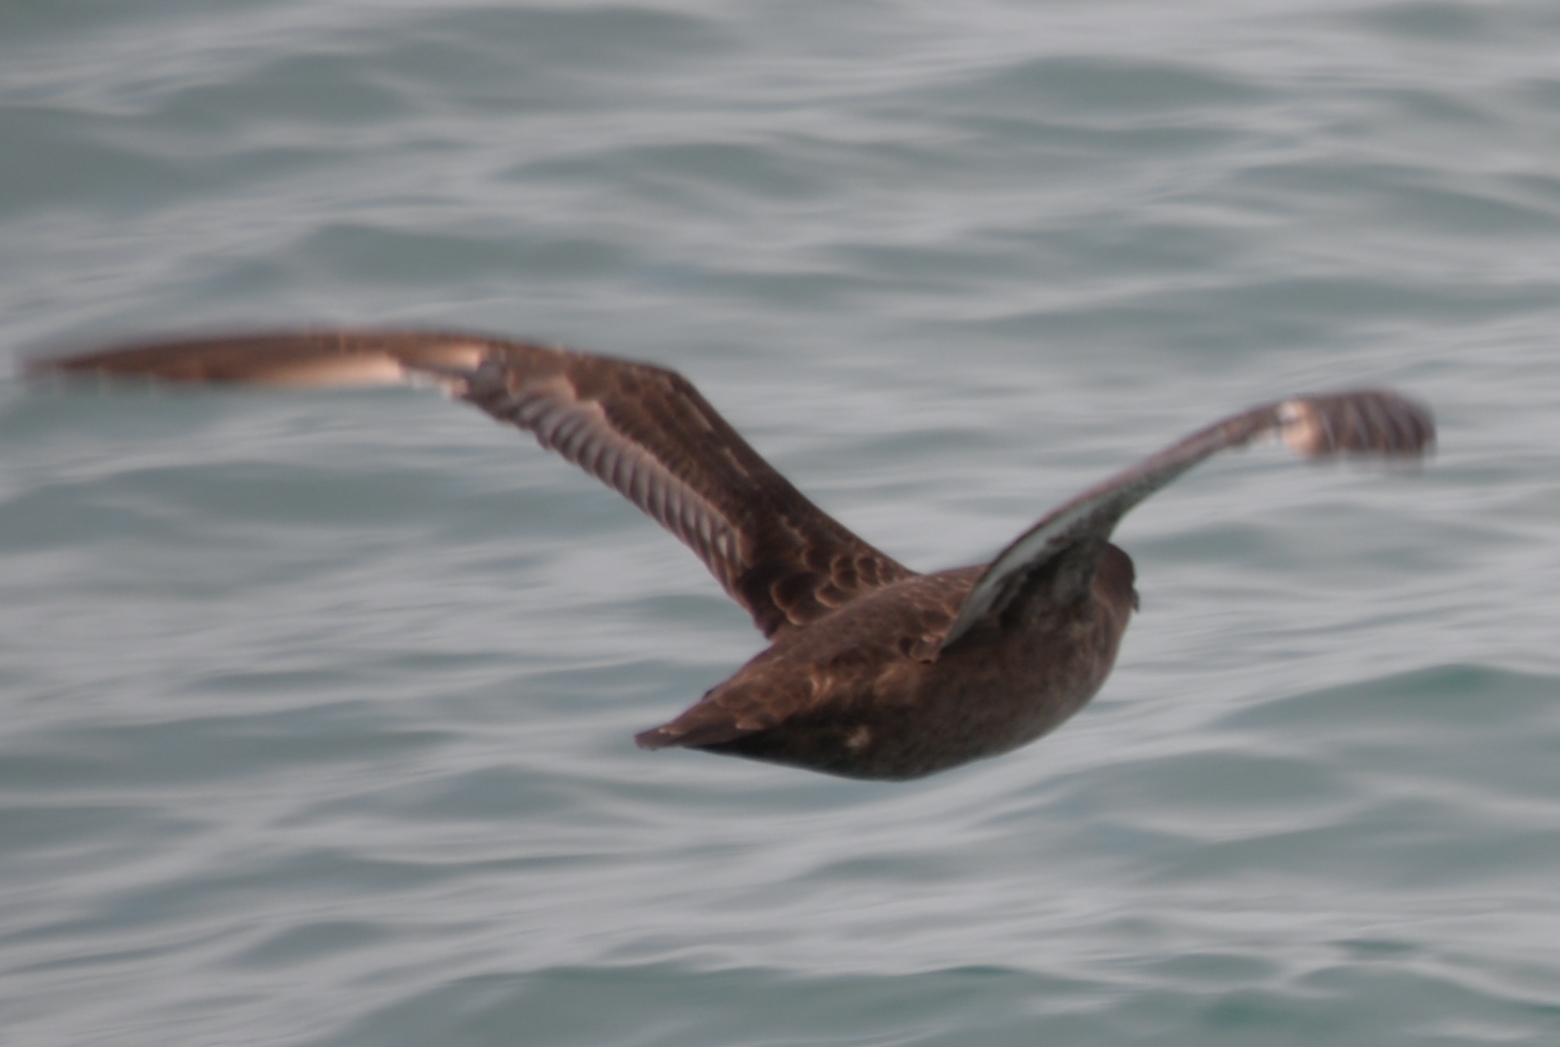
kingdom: Animalia
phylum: Chordata
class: Aves
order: Procellariiformes
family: Procellariidae
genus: Puffinus
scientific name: Puffinus griseus
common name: Sooty shearwater
